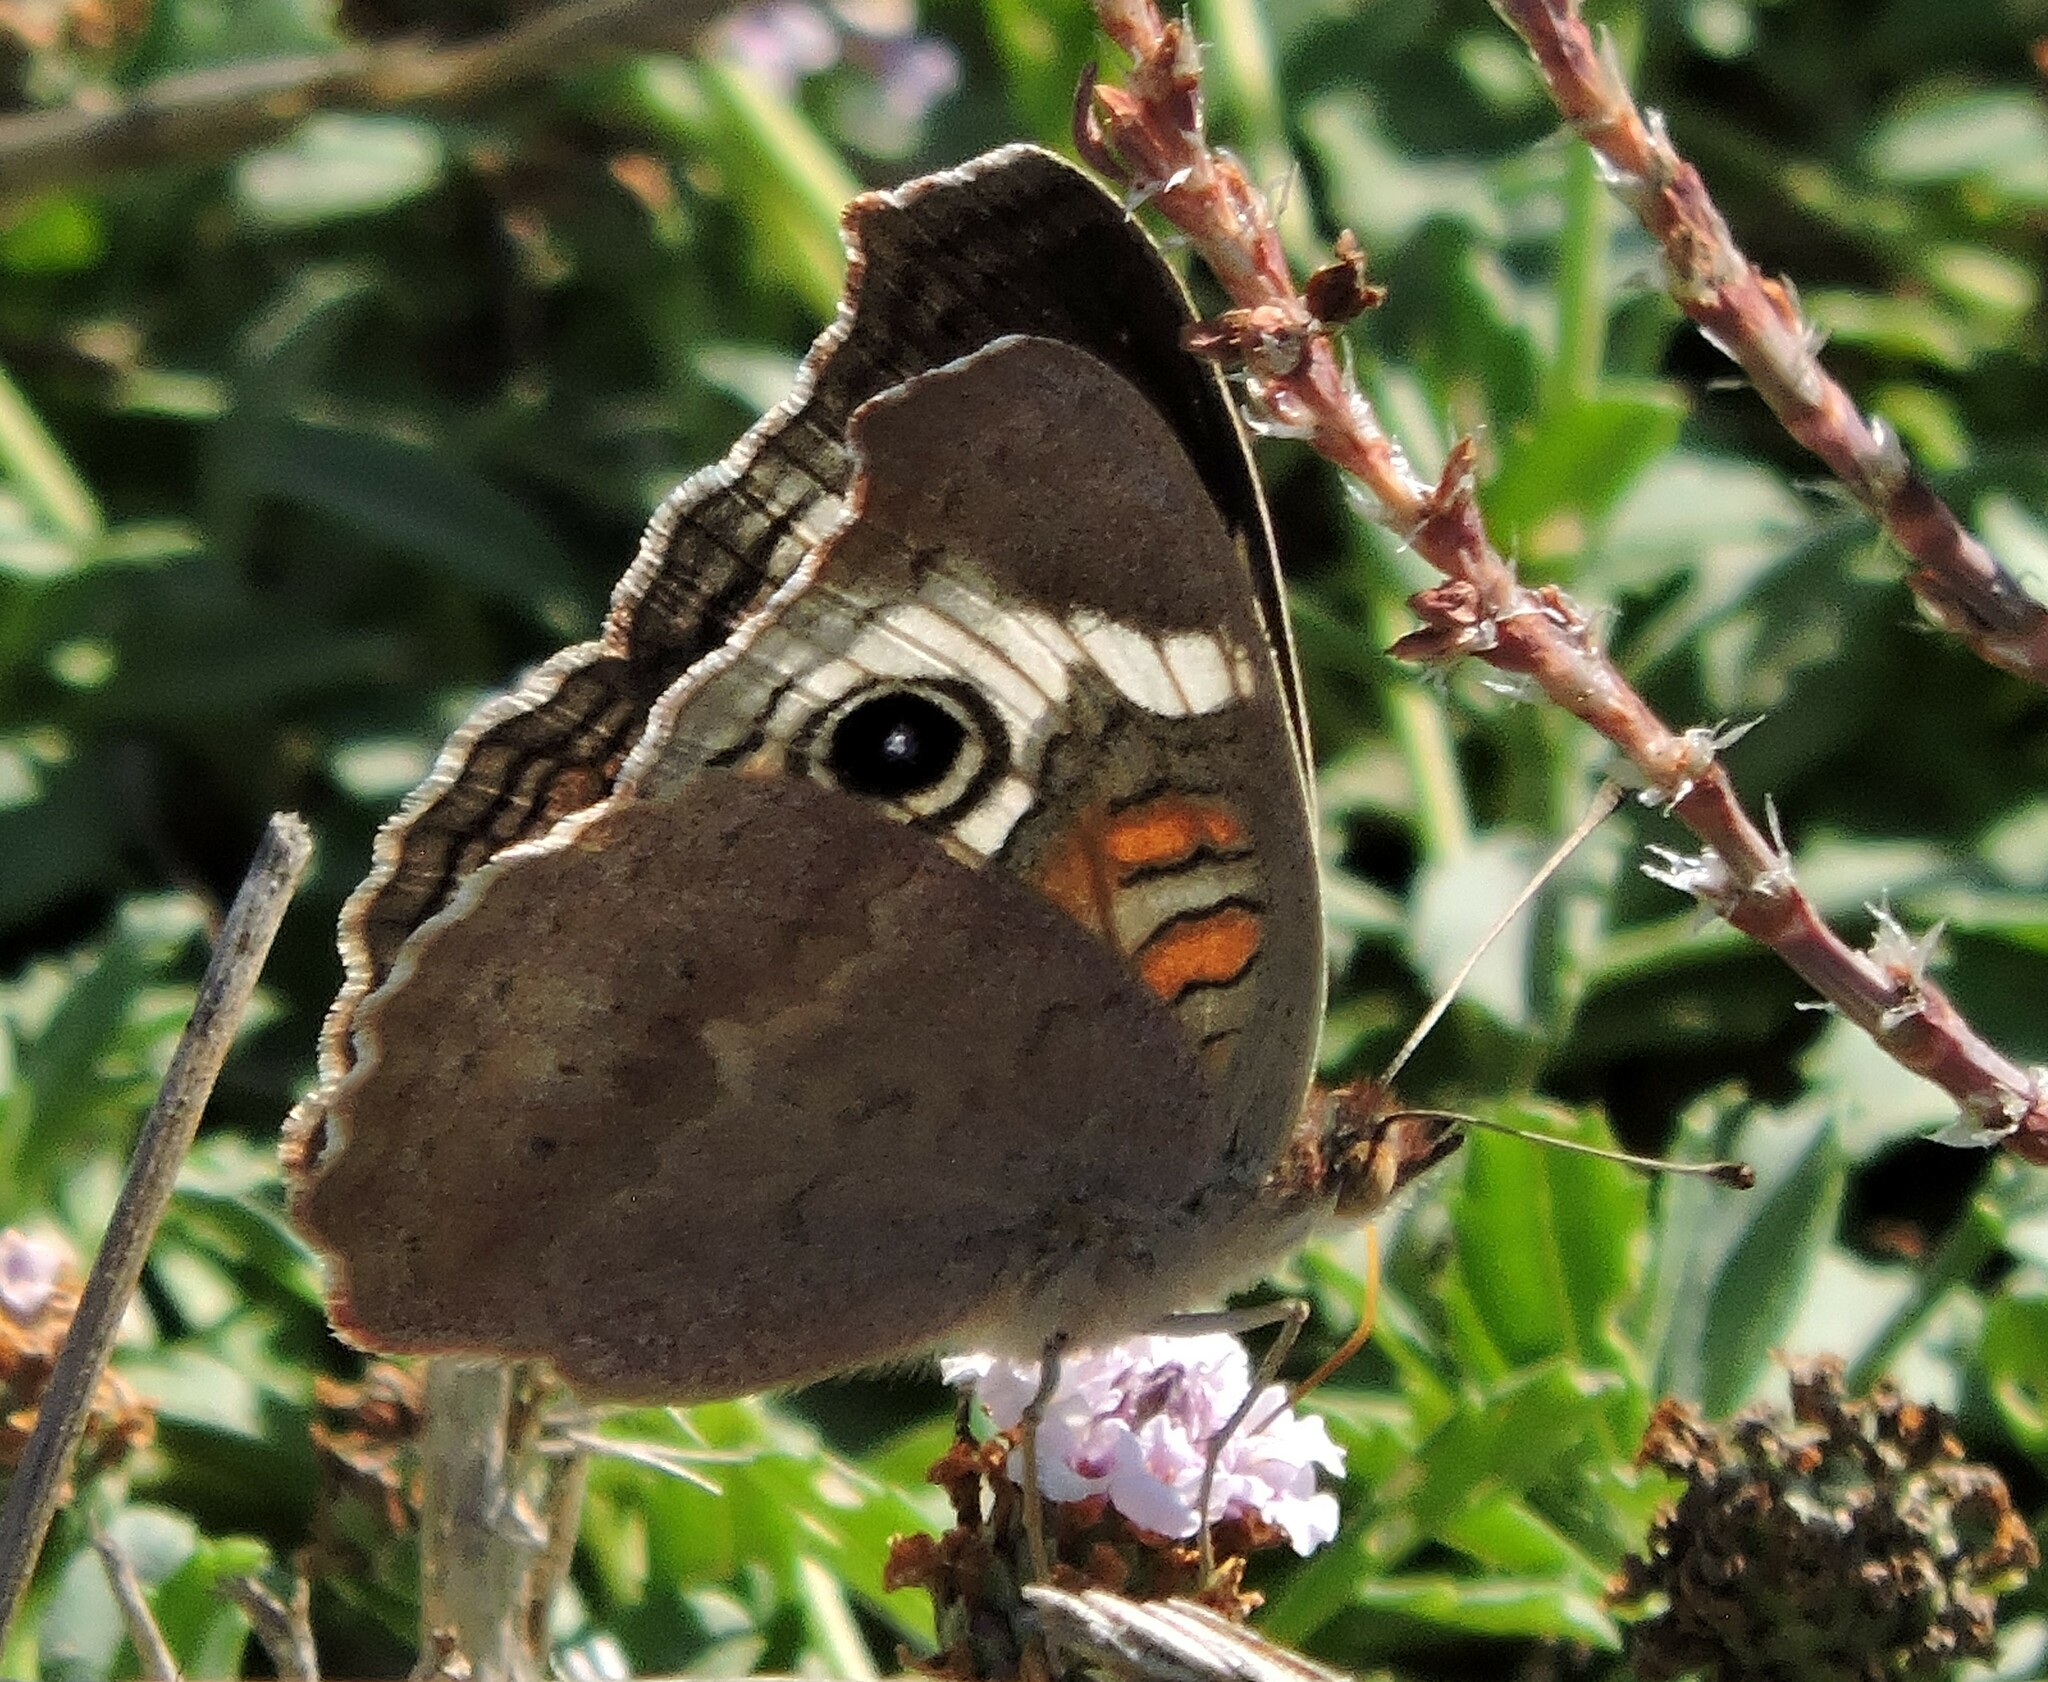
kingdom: Animalia
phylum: Arthropoda
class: Insecta
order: Lepidoptera
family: Nymphalidae
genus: Junonia
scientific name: Junonia grisea
